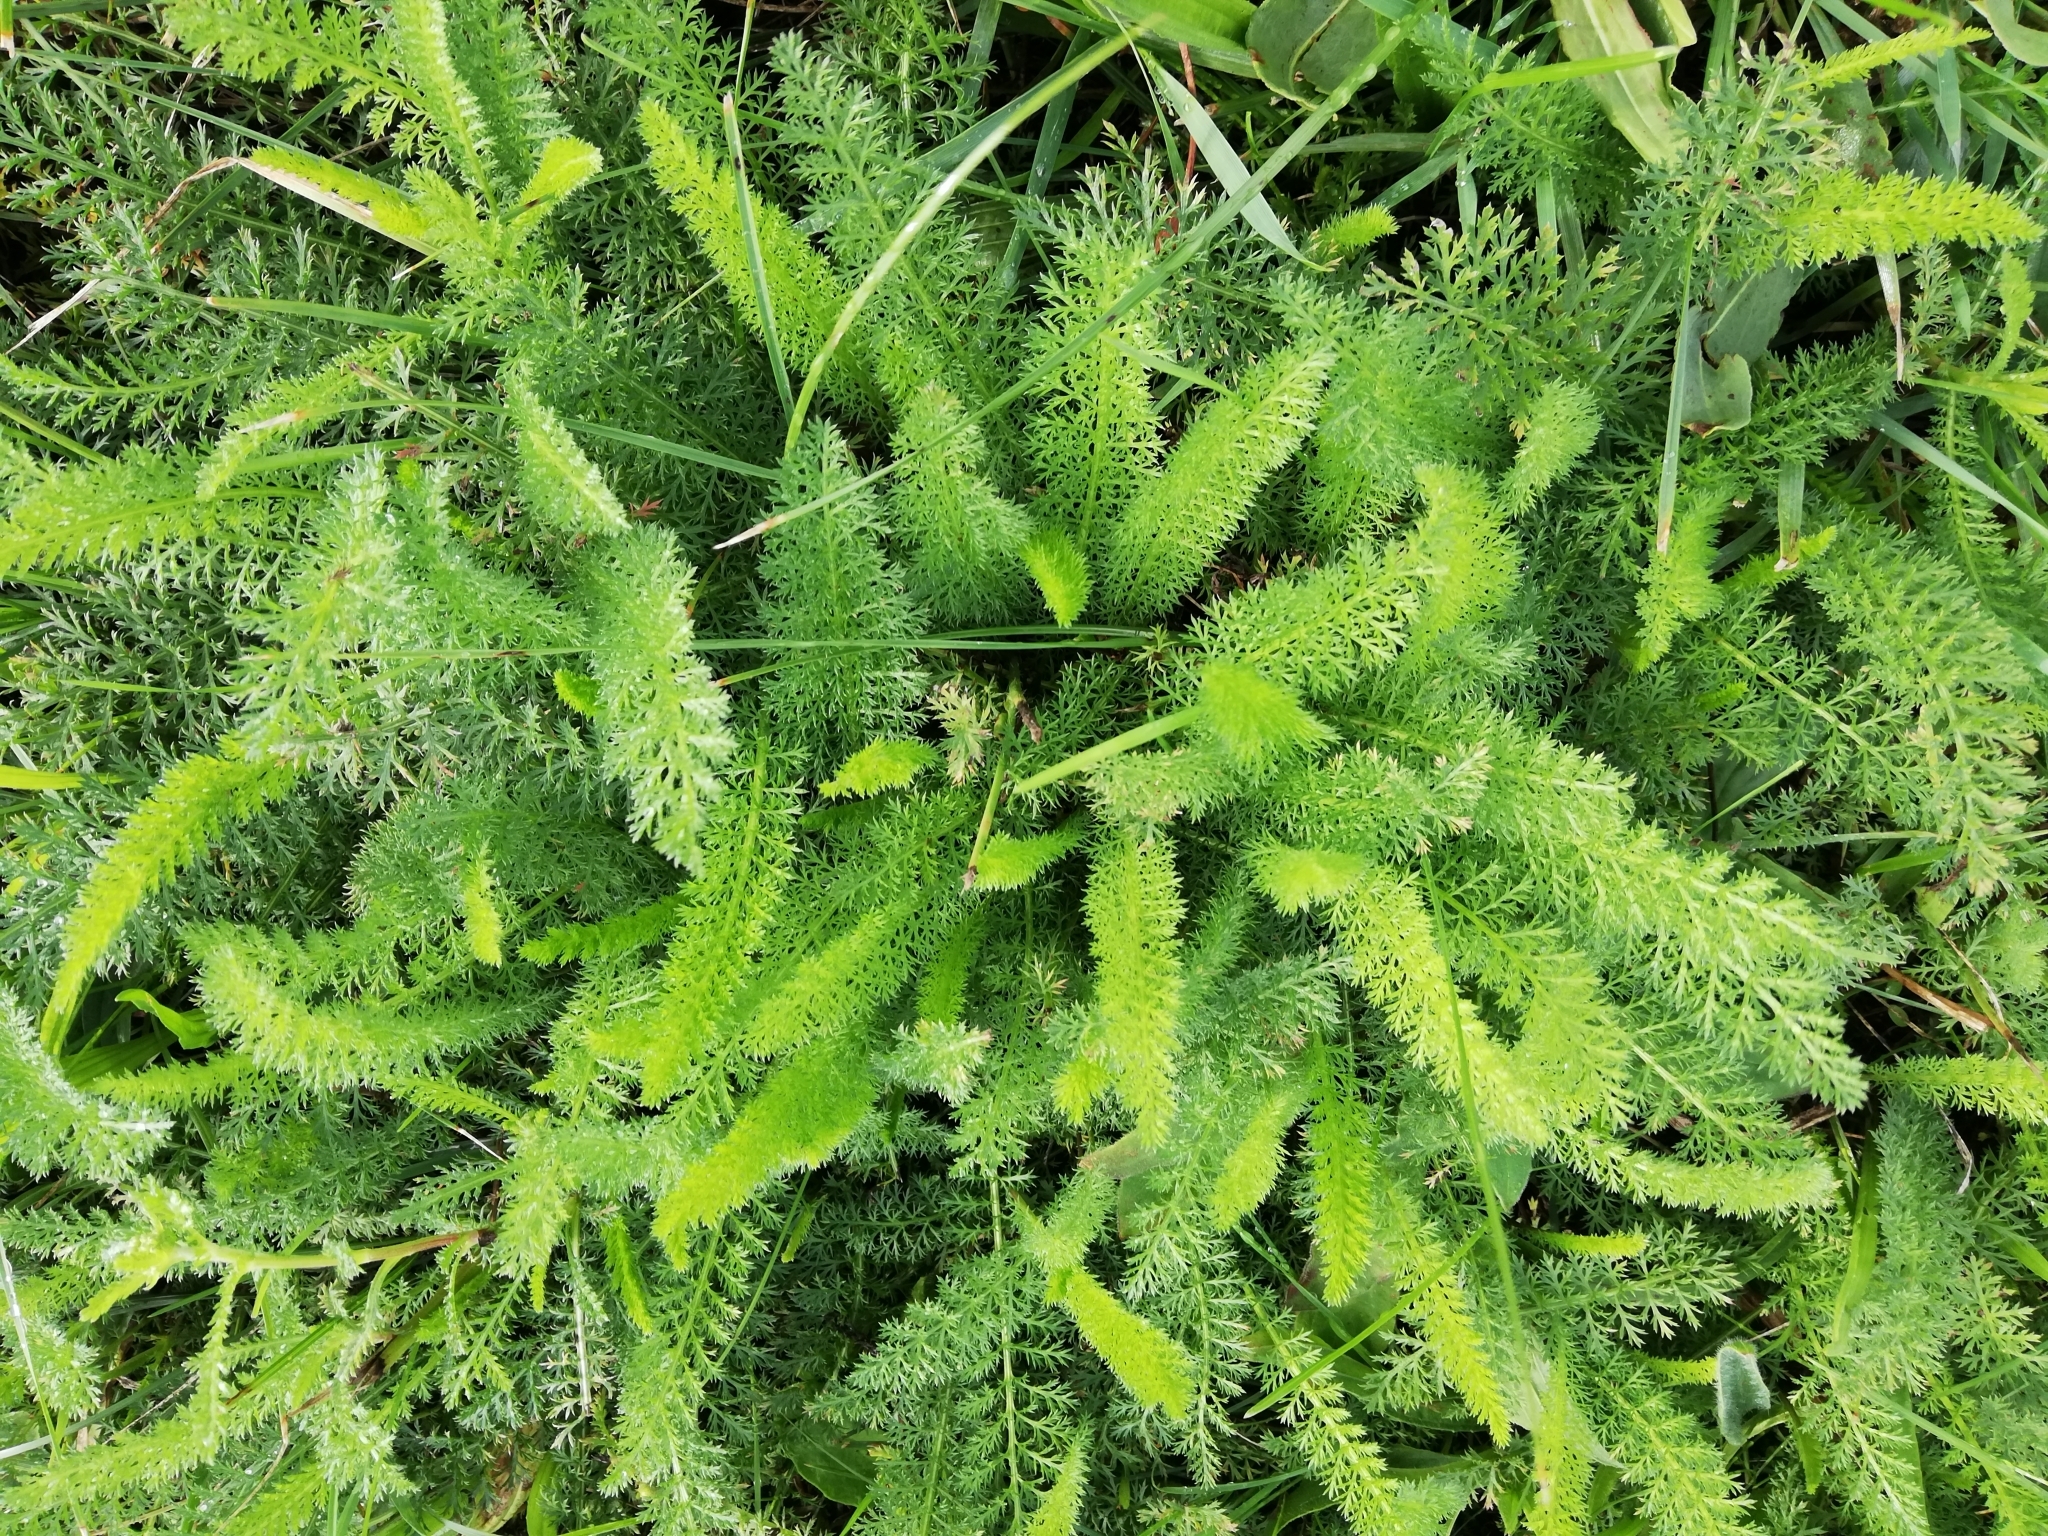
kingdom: Plantae
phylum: Tracheophyta
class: Magnoliopsida
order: Asterales
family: Asteraceae
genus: Achillea
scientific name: Achillea millefolium
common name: Yarrow
